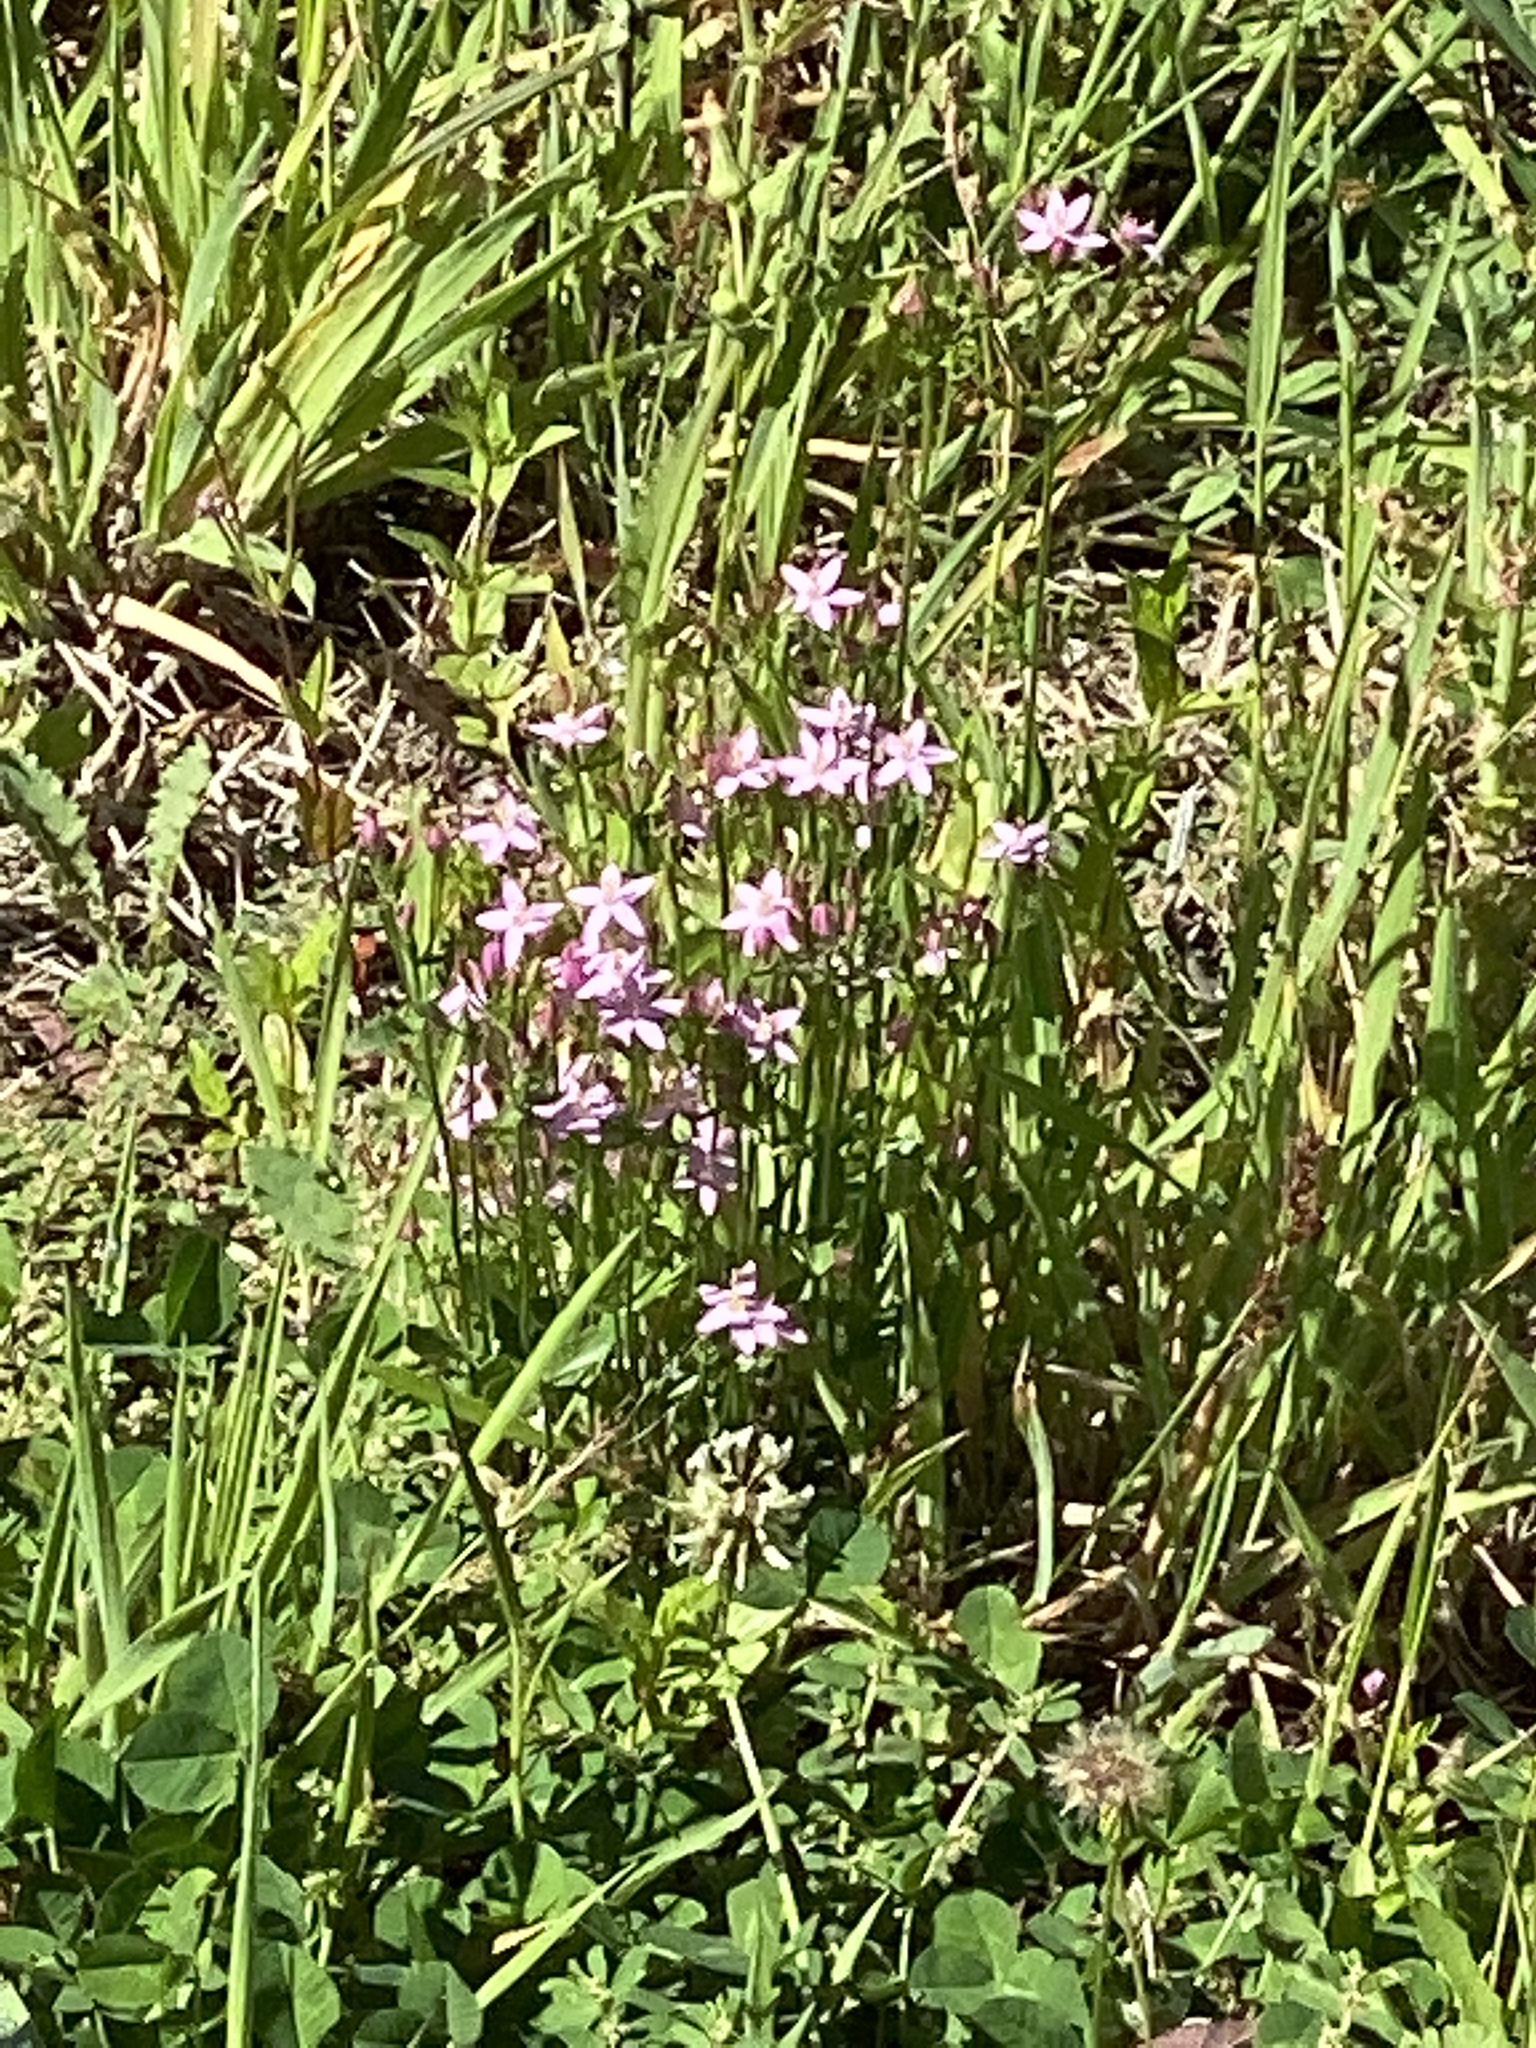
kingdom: Plantae
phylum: Tracheophyta
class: Magnoliopsida
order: Gentianales
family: Gentianaceae
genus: Centaurium
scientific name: Centaurium erythraea
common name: Common centaury
